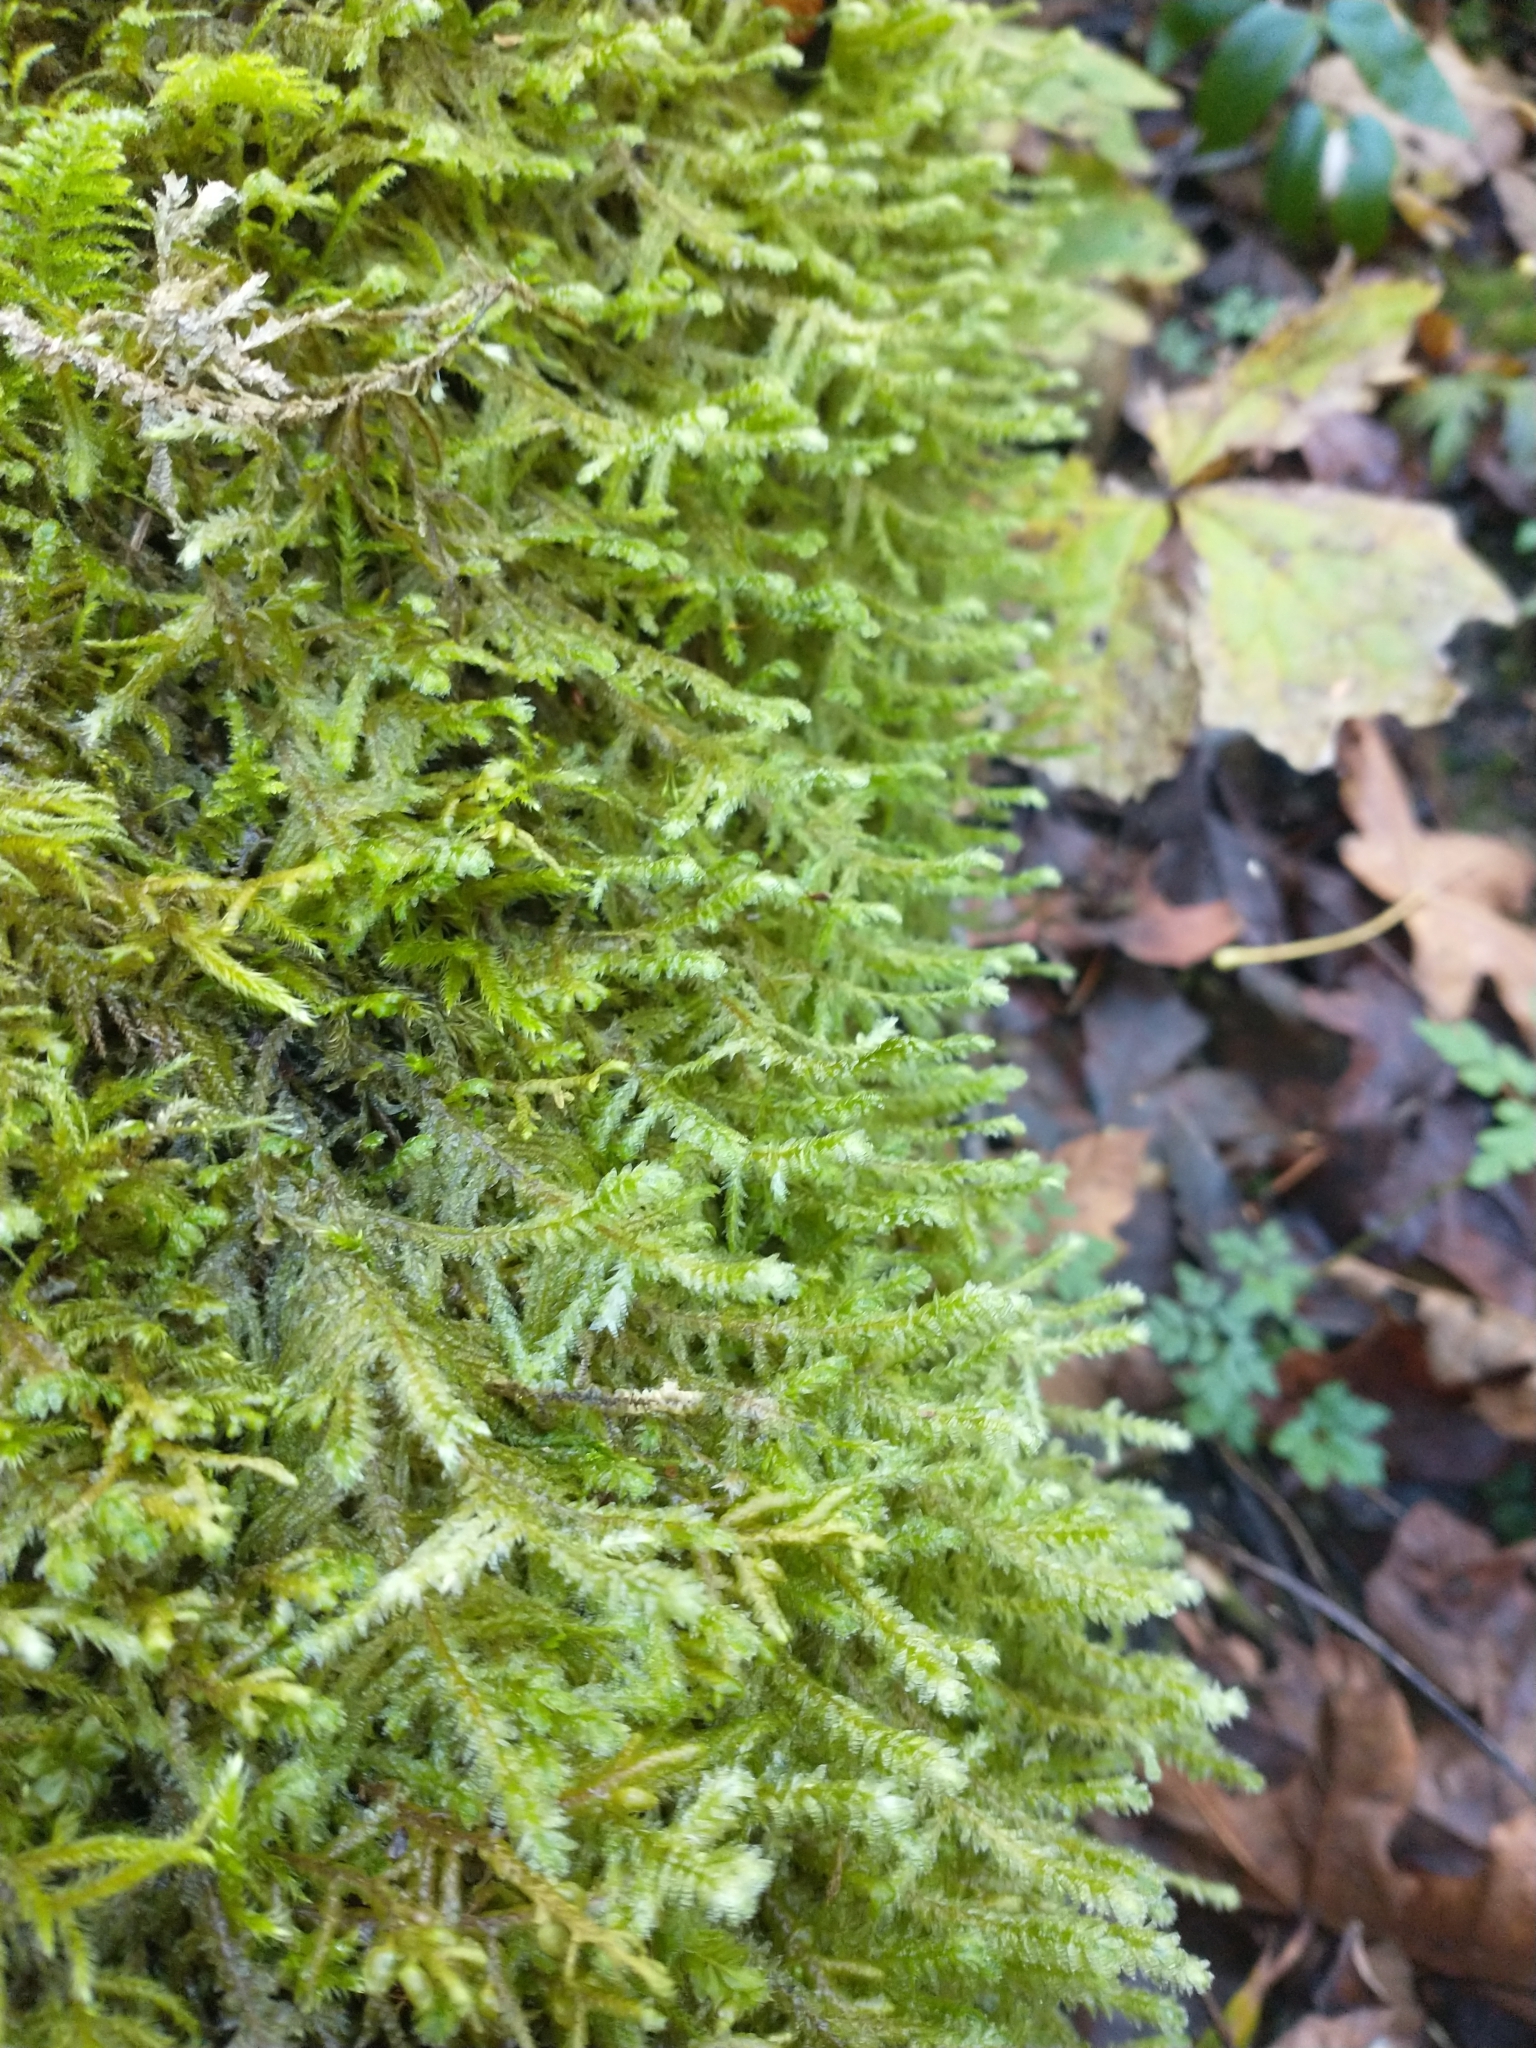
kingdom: Plantae
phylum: Bryophyta
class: Bryopsida
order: Hypnales
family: Neckeraceae
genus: Neckera
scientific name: Neckera douglasii
